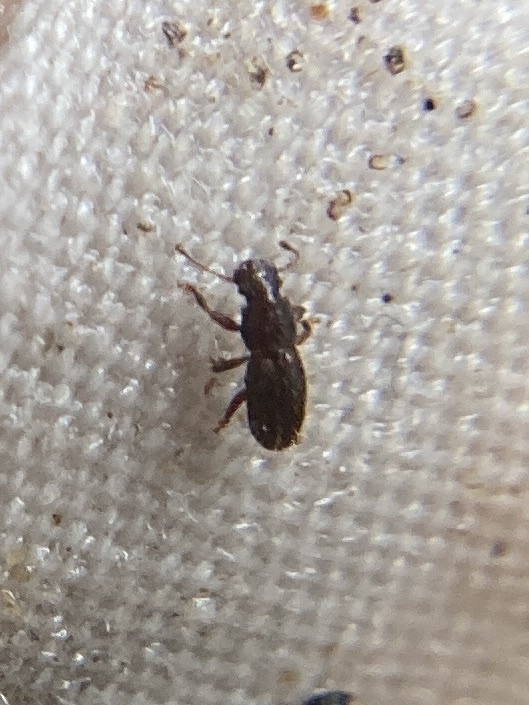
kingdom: Animalia
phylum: Arthropoda
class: Insecta
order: Coleoptera
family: Belidae
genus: Proterhinus
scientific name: Proterhinus brevicornis
